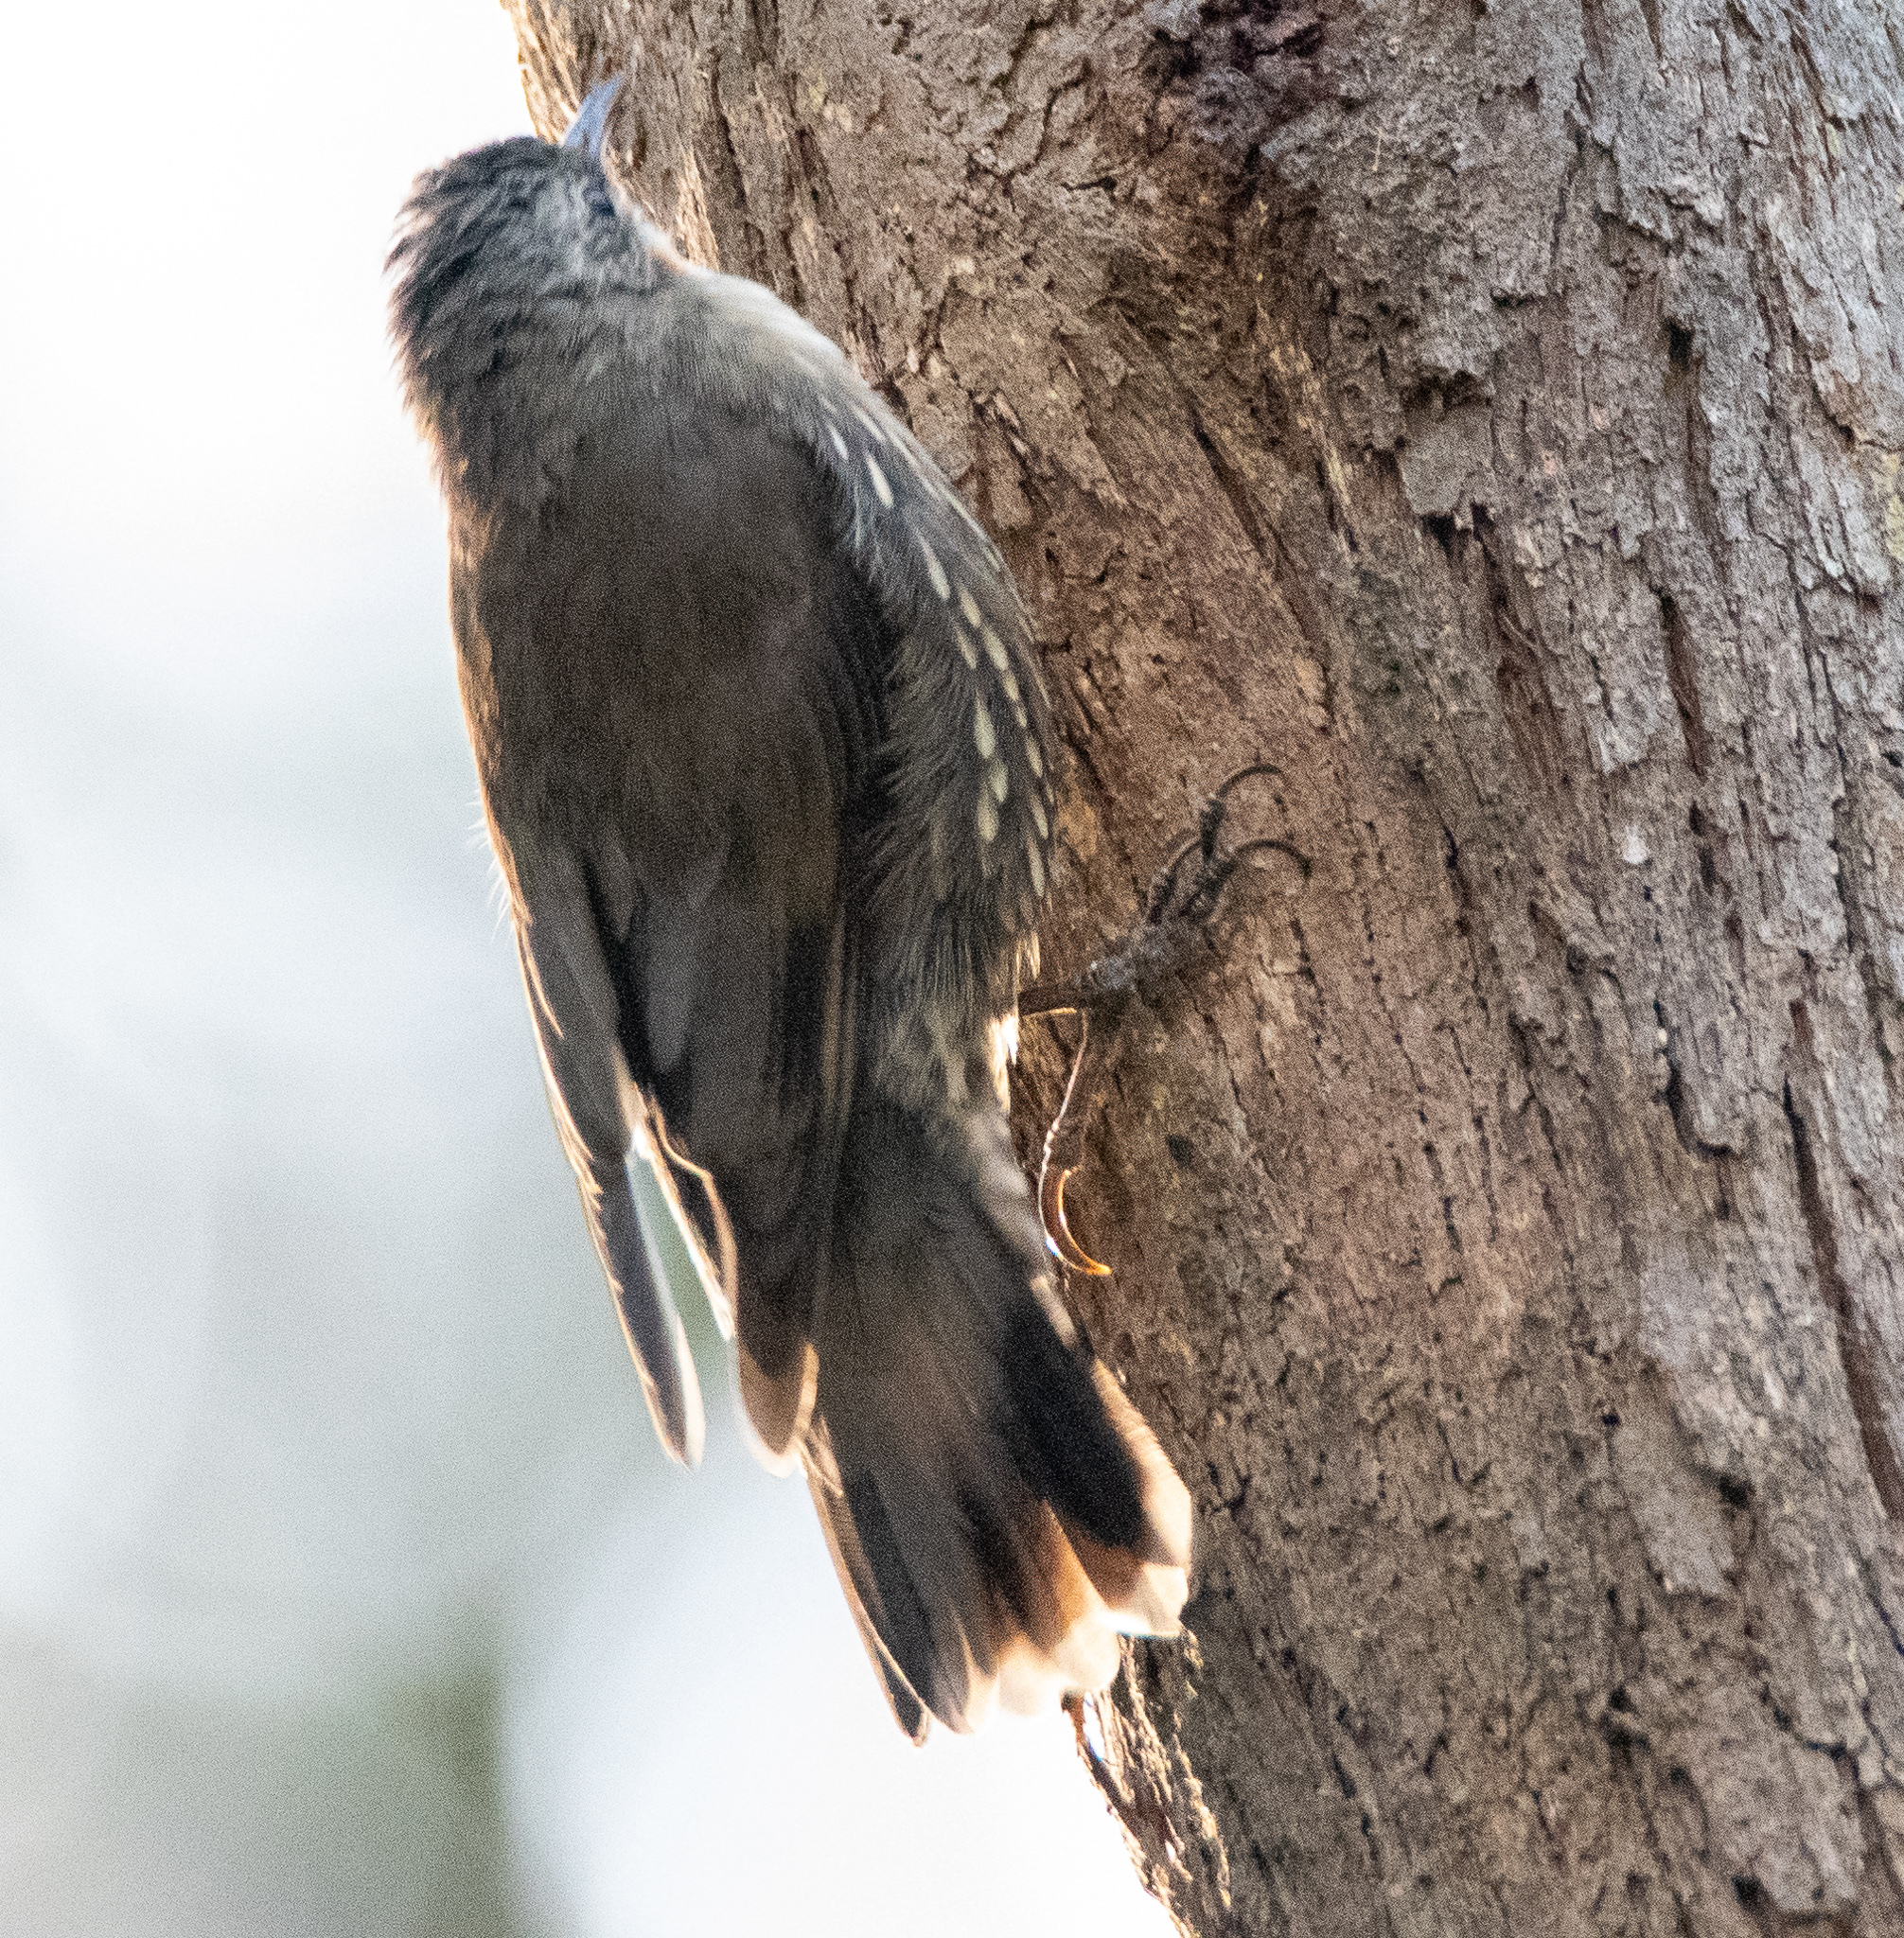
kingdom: Animalia
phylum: Chordata
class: Aves
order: Passeriformes
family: Climacteridae
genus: Cormobates
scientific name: Cormobates leucophaea
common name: White-throated treecreeper
